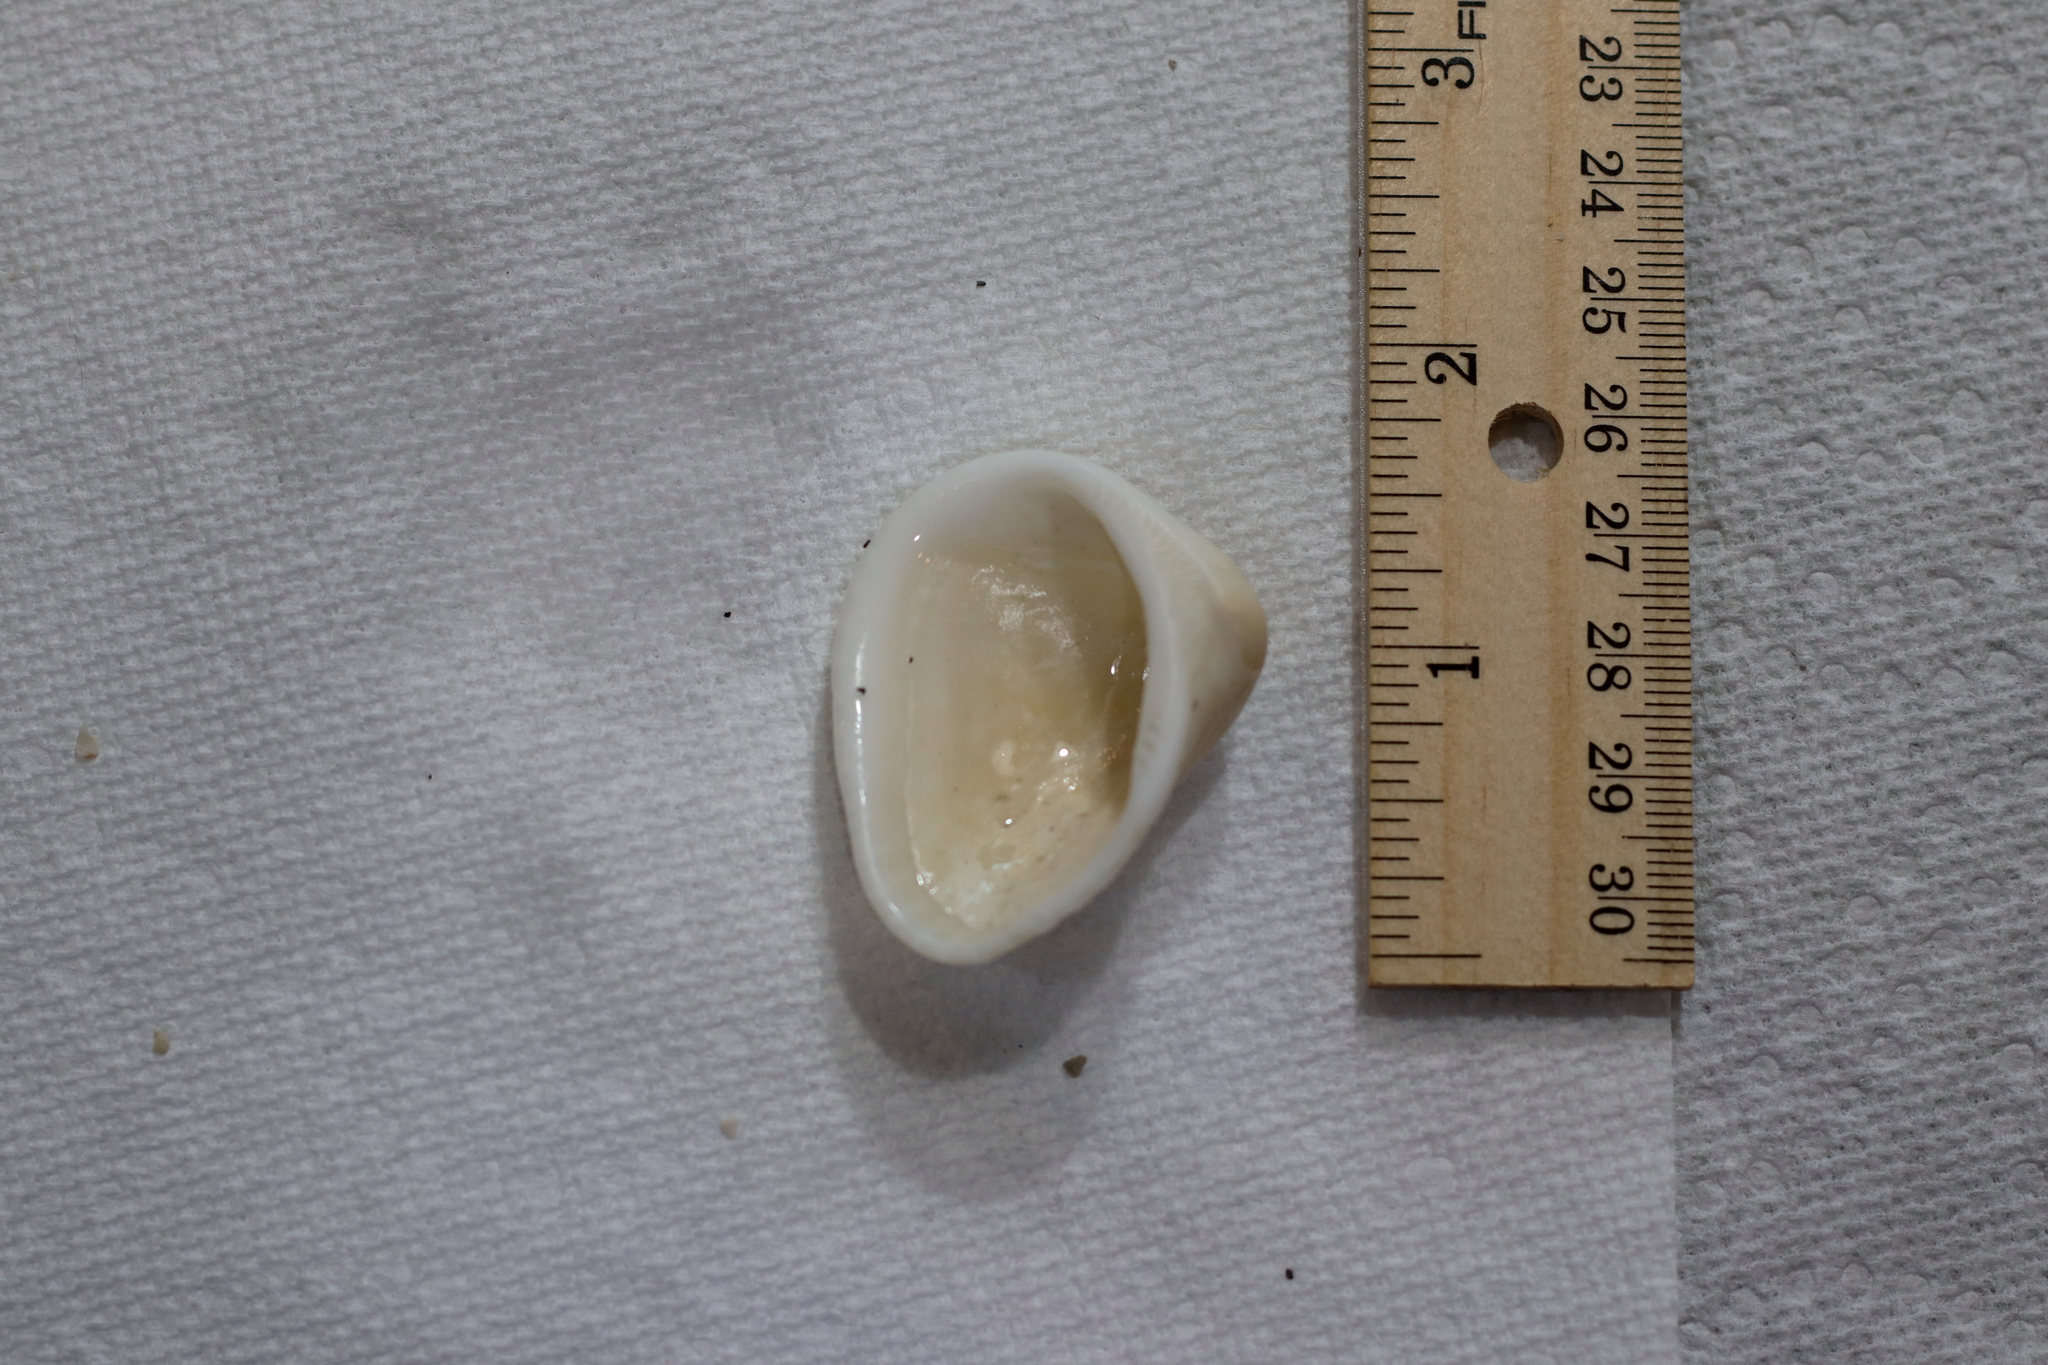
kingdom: Animalia
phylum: Mollusca
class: Bivalvia
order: Arcida
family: Noetiidae
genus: Noetia
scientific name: Noetia ponderosa
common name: Ponderous ark
